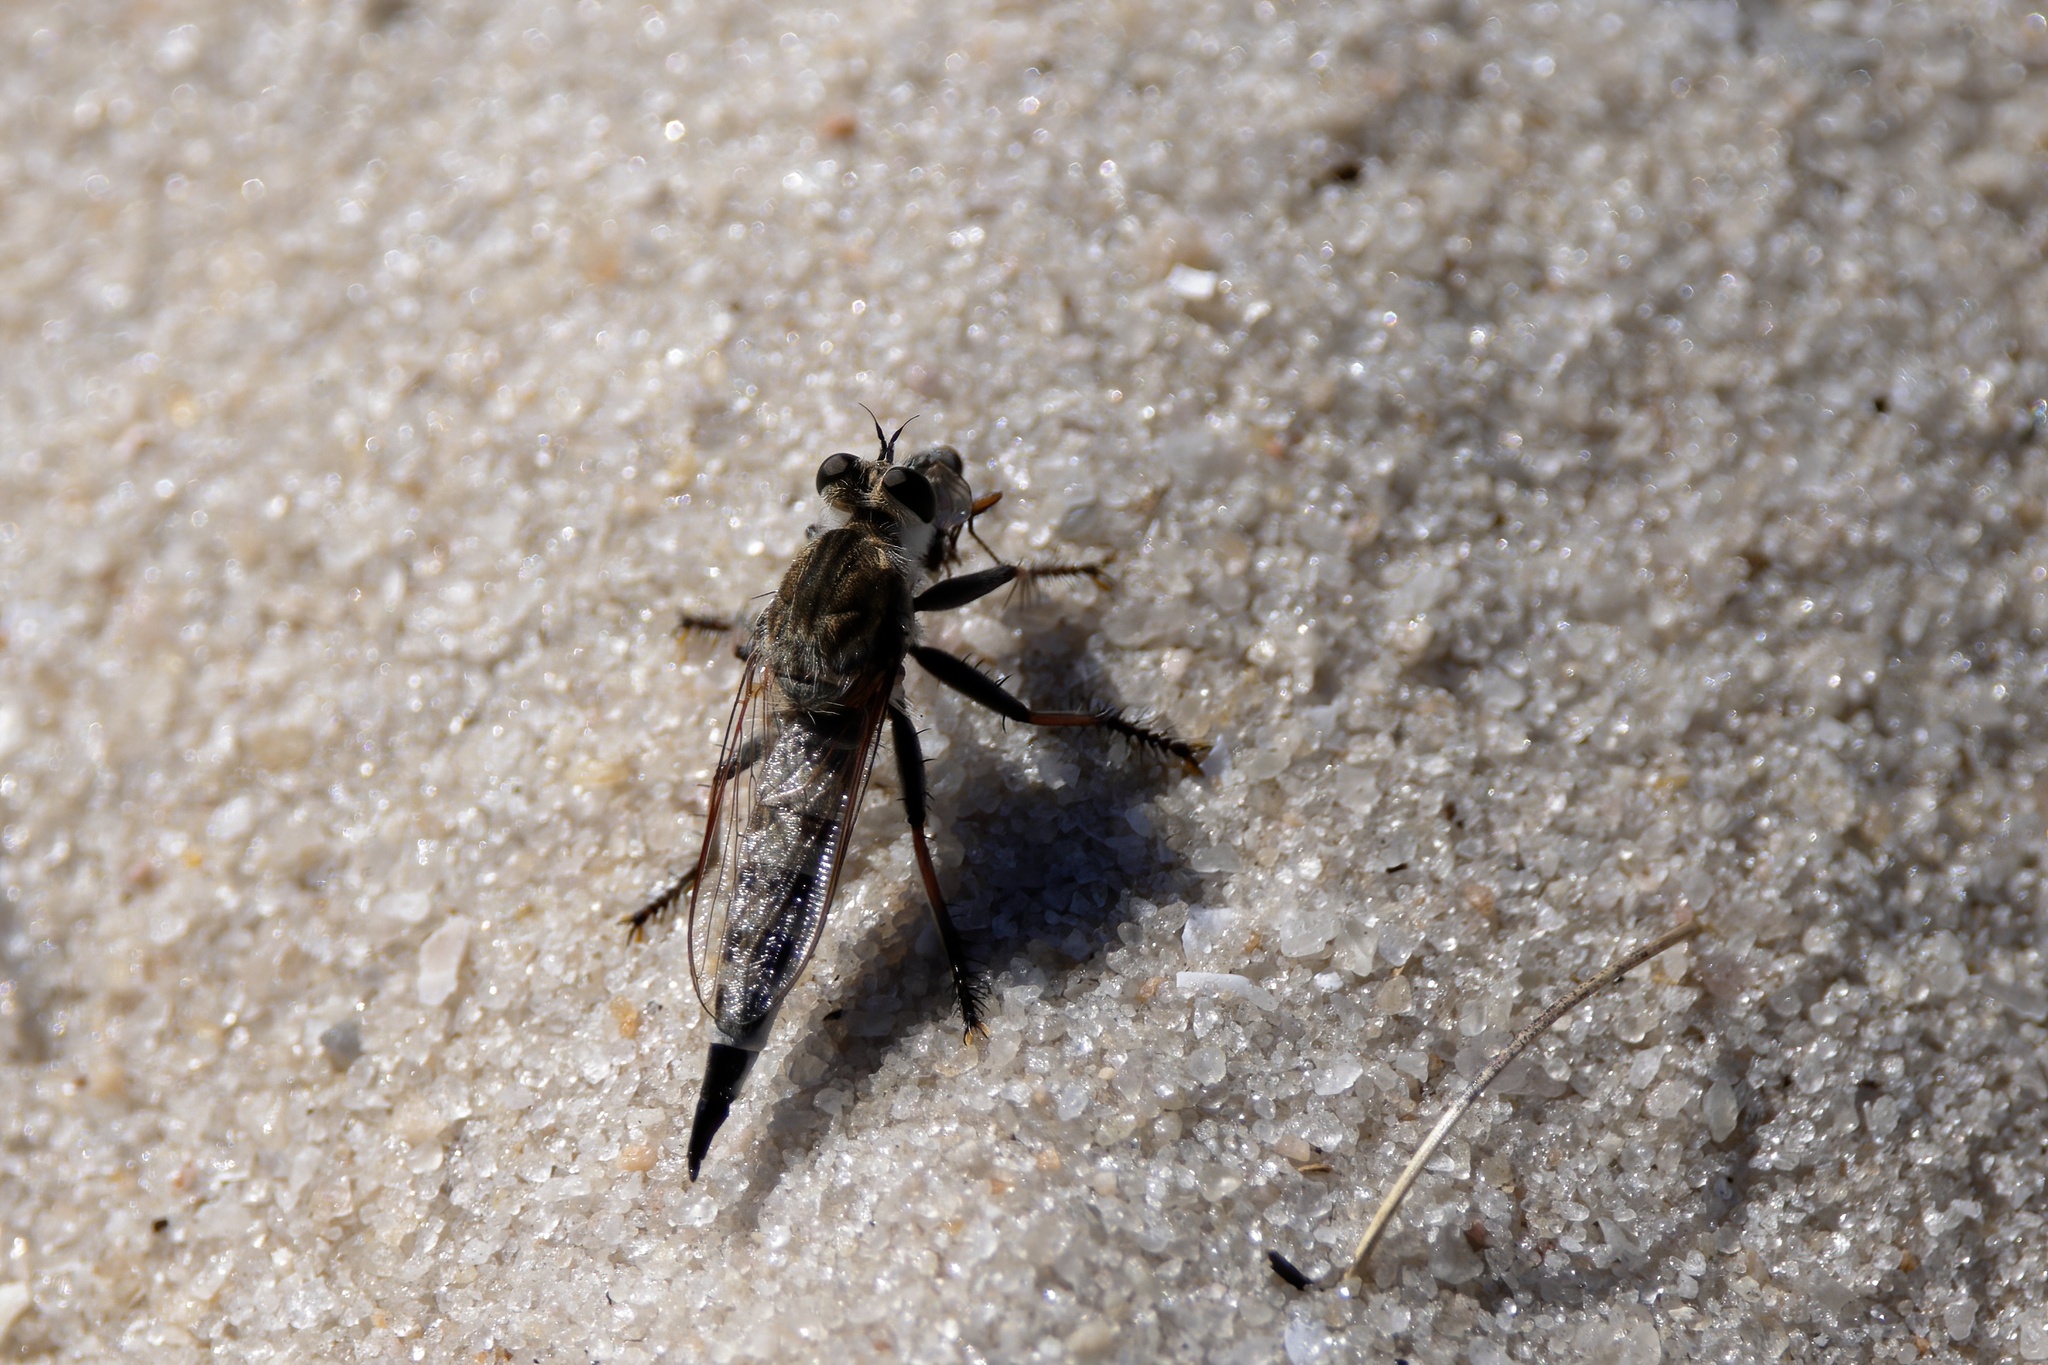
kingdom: Animalia
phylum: Arthropoda
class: Insecta
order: Diptera
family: Asilidae
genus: Efferia
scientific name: Efferia albibarbis
